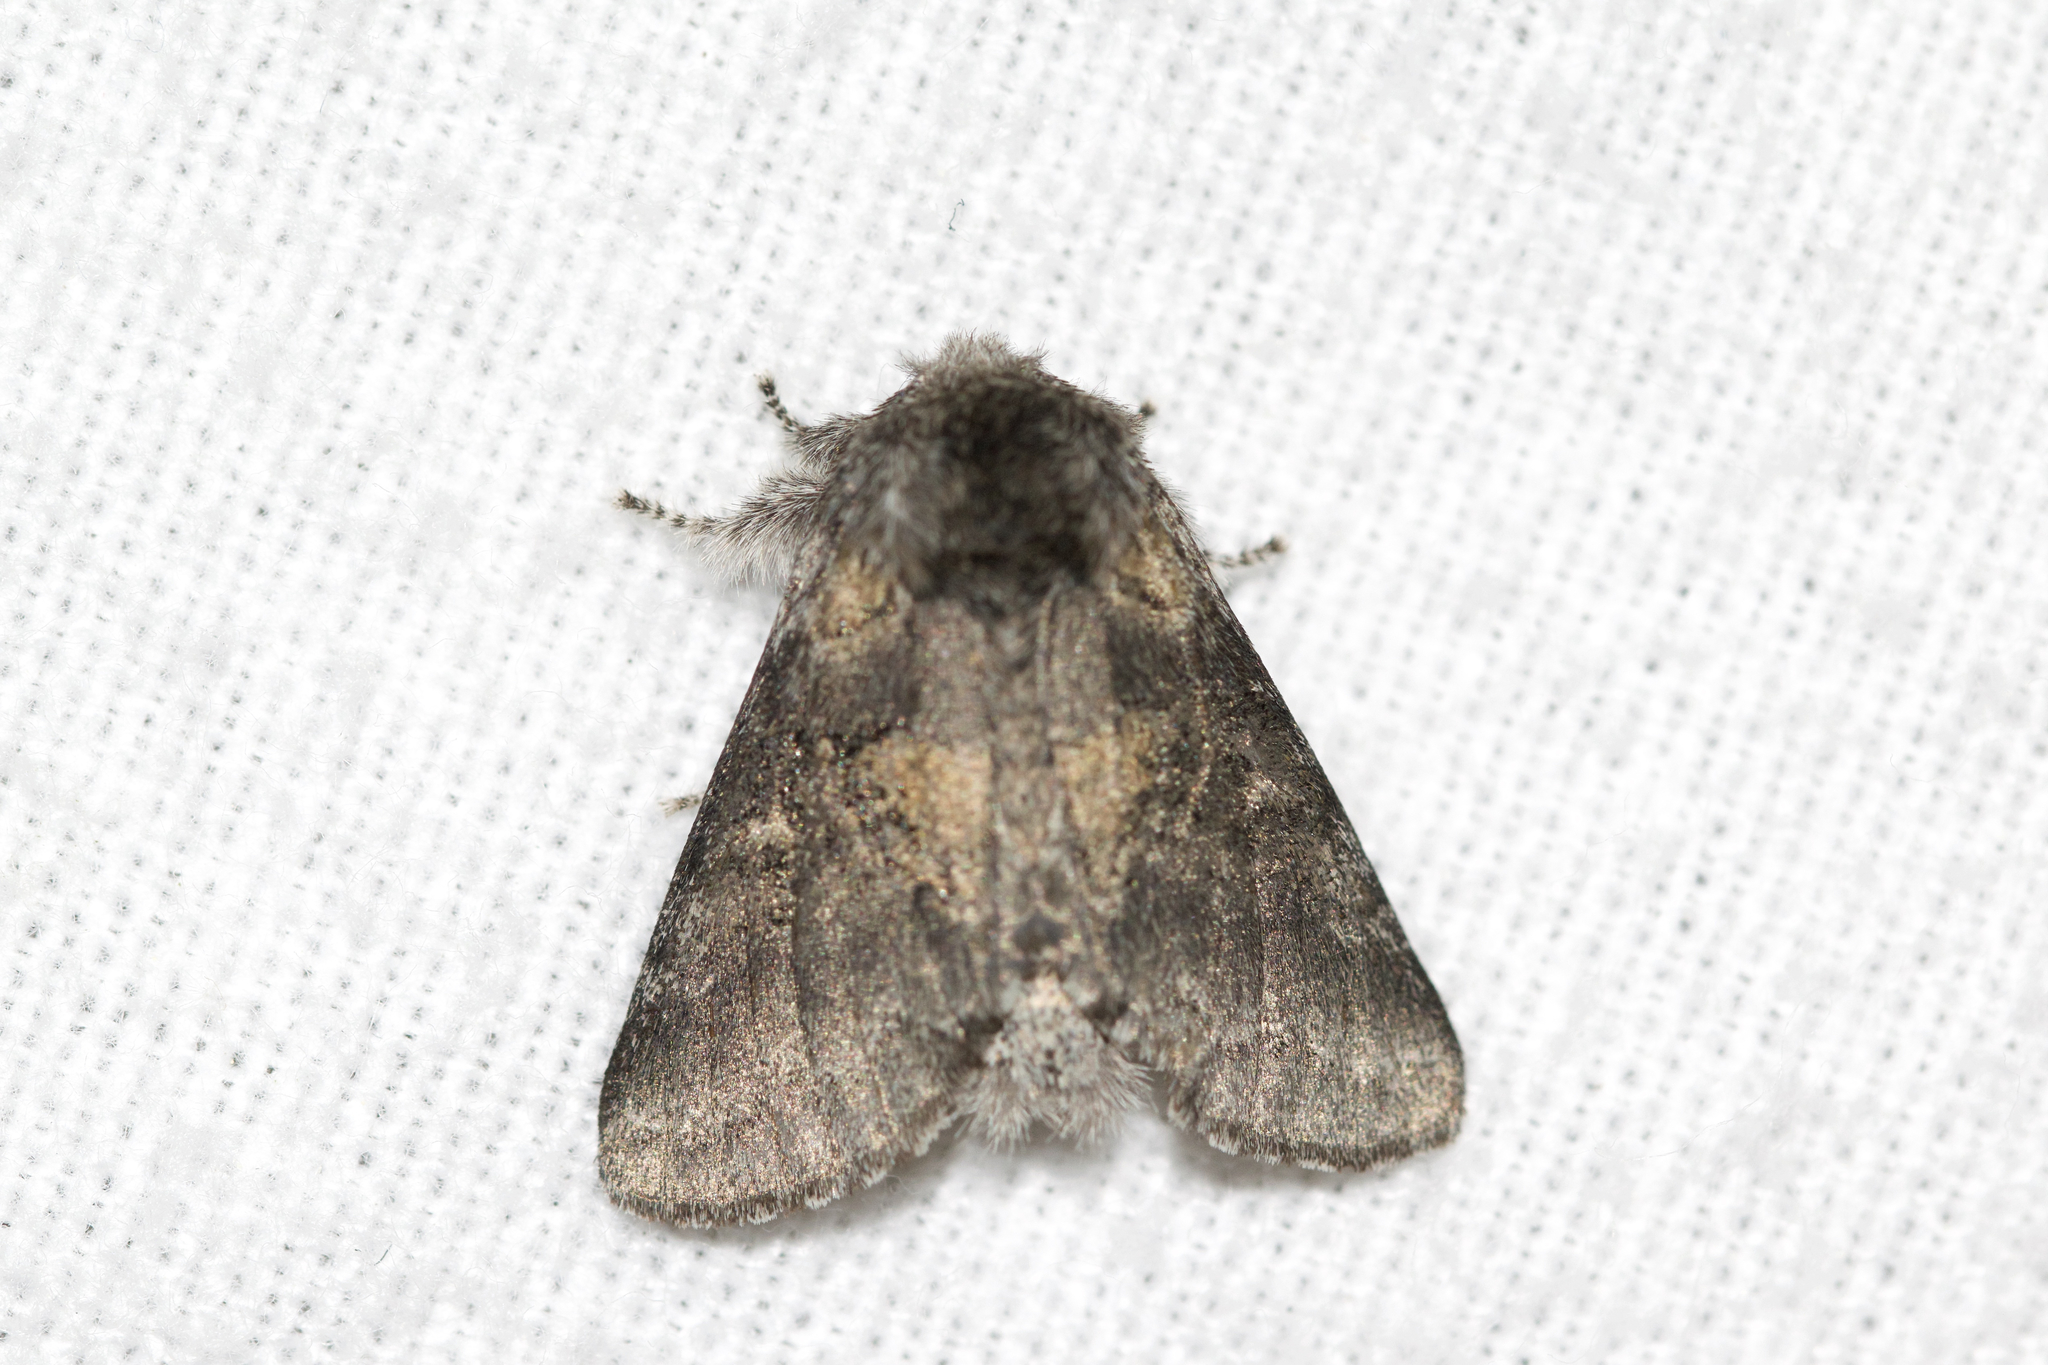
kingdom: Animalia
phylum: Arthropoda
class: Insecta
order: Lepidoptera
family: Notodontidae
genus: Gluphisia
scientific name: Gluphisia septentrionis
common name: Common gluphisia
